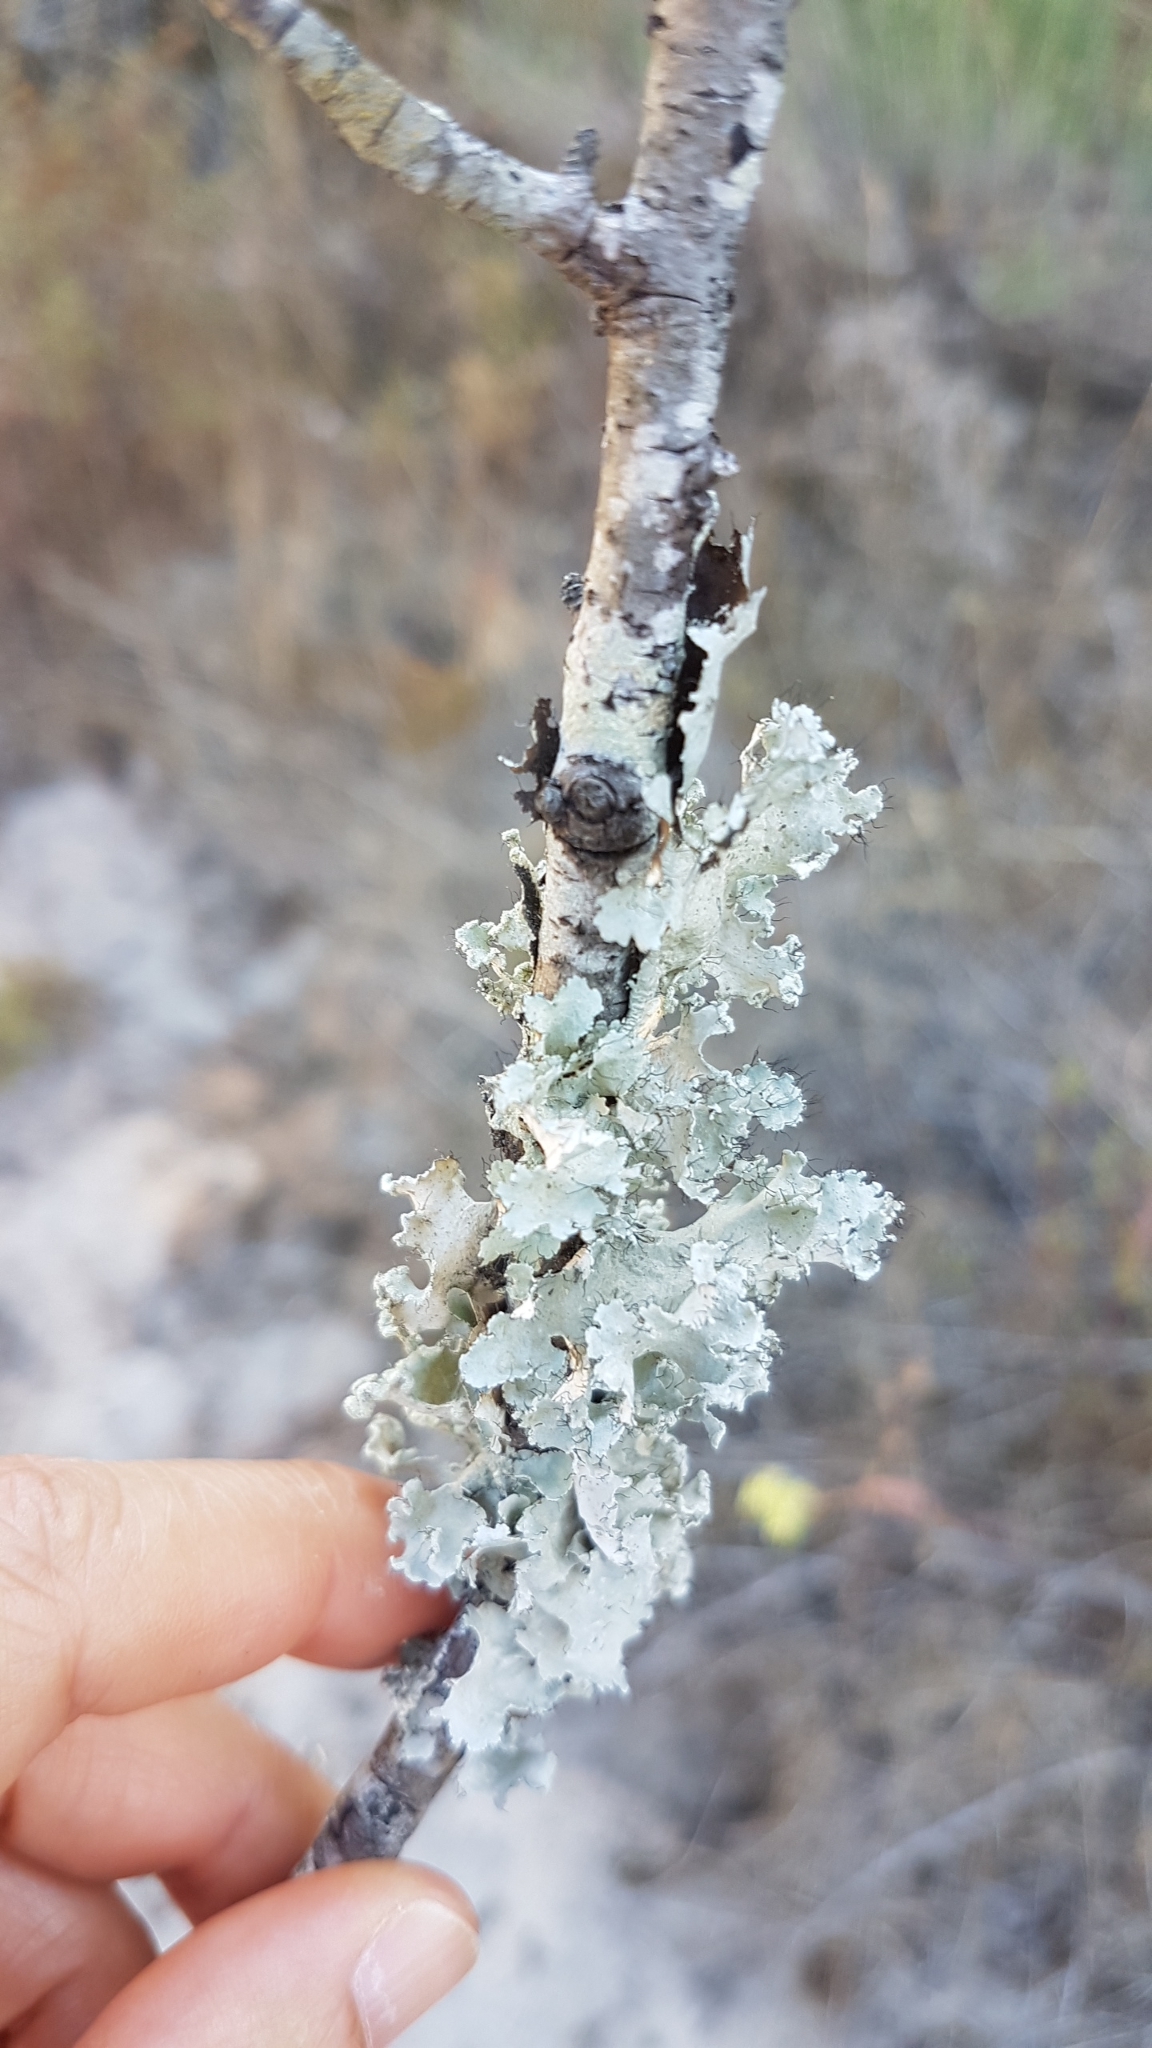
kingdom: Fungi
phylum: Ascomycota
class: Lecanoromycetes
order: Lecanorales
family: Parmeliaceae
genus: Parmotrema
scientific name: Parmotrema hypoleucinum
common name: Lacy powdered-ruffle
